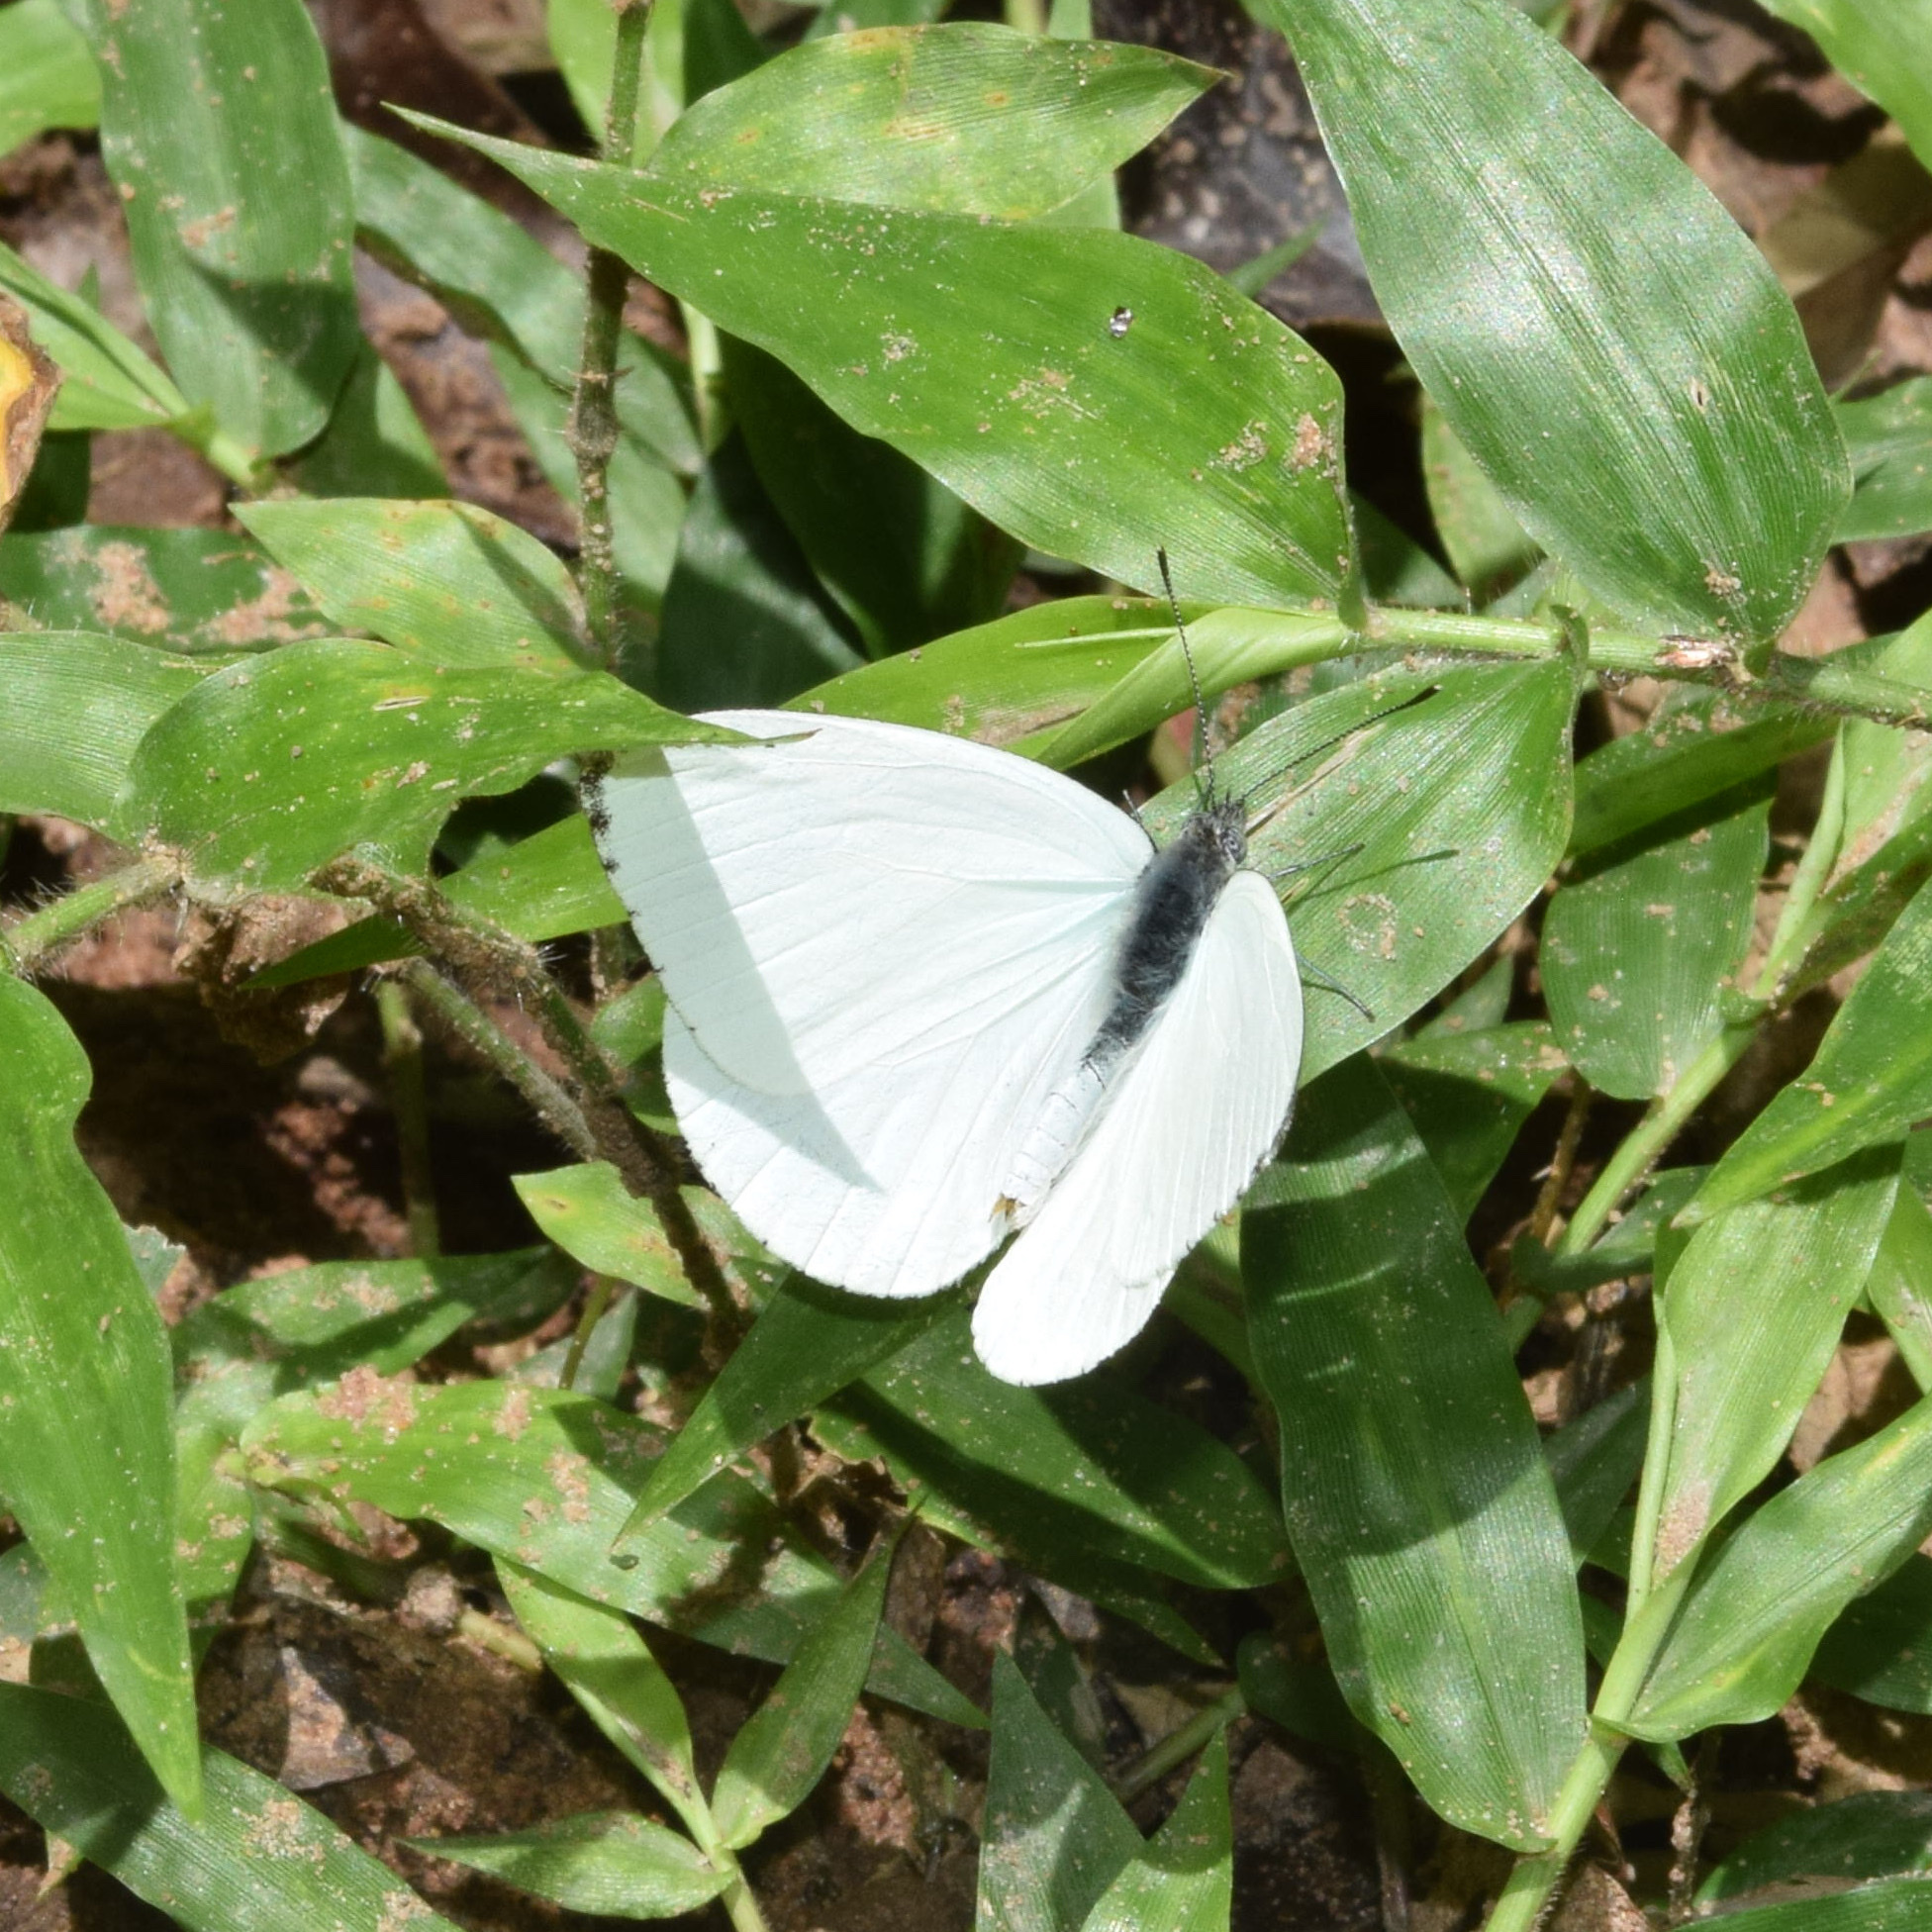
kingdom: Animalia
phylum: Arthropoda
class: Insecta
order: Lepidoptera
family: Pieridae
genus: Dixeia
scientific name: Dixeia
